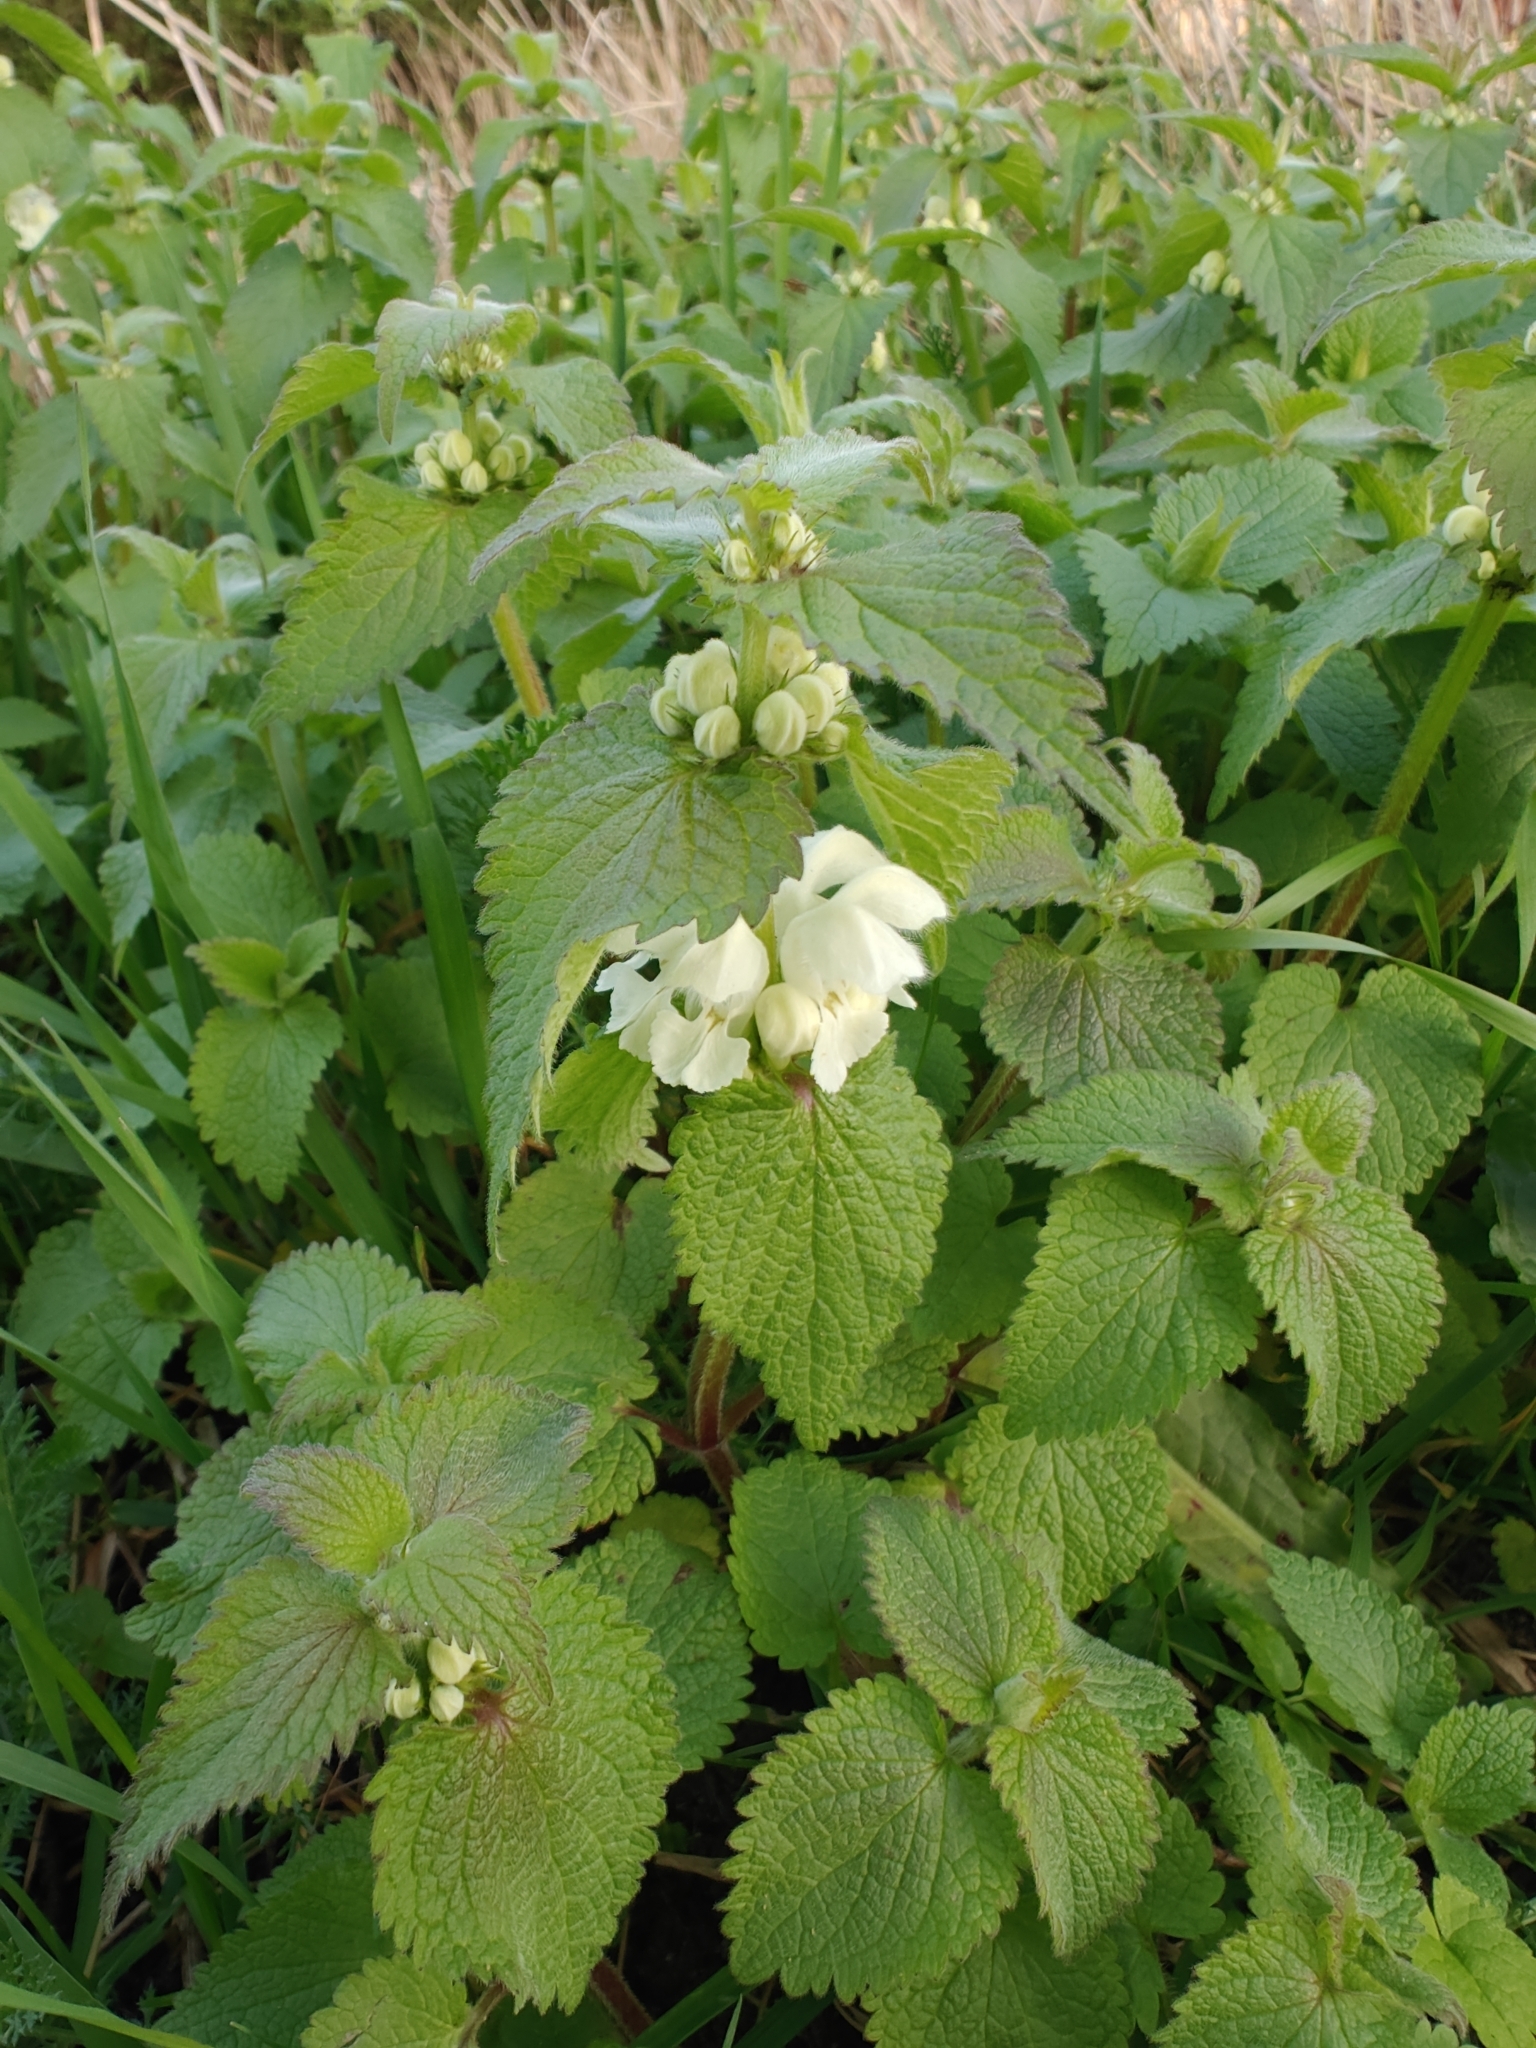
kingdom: Plantae
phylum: Tracheophyta
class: Magnoliopsida
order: Lamiales
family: Lamiaceae
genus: Lamium
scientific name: Lamium album
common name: White dead-nettle
